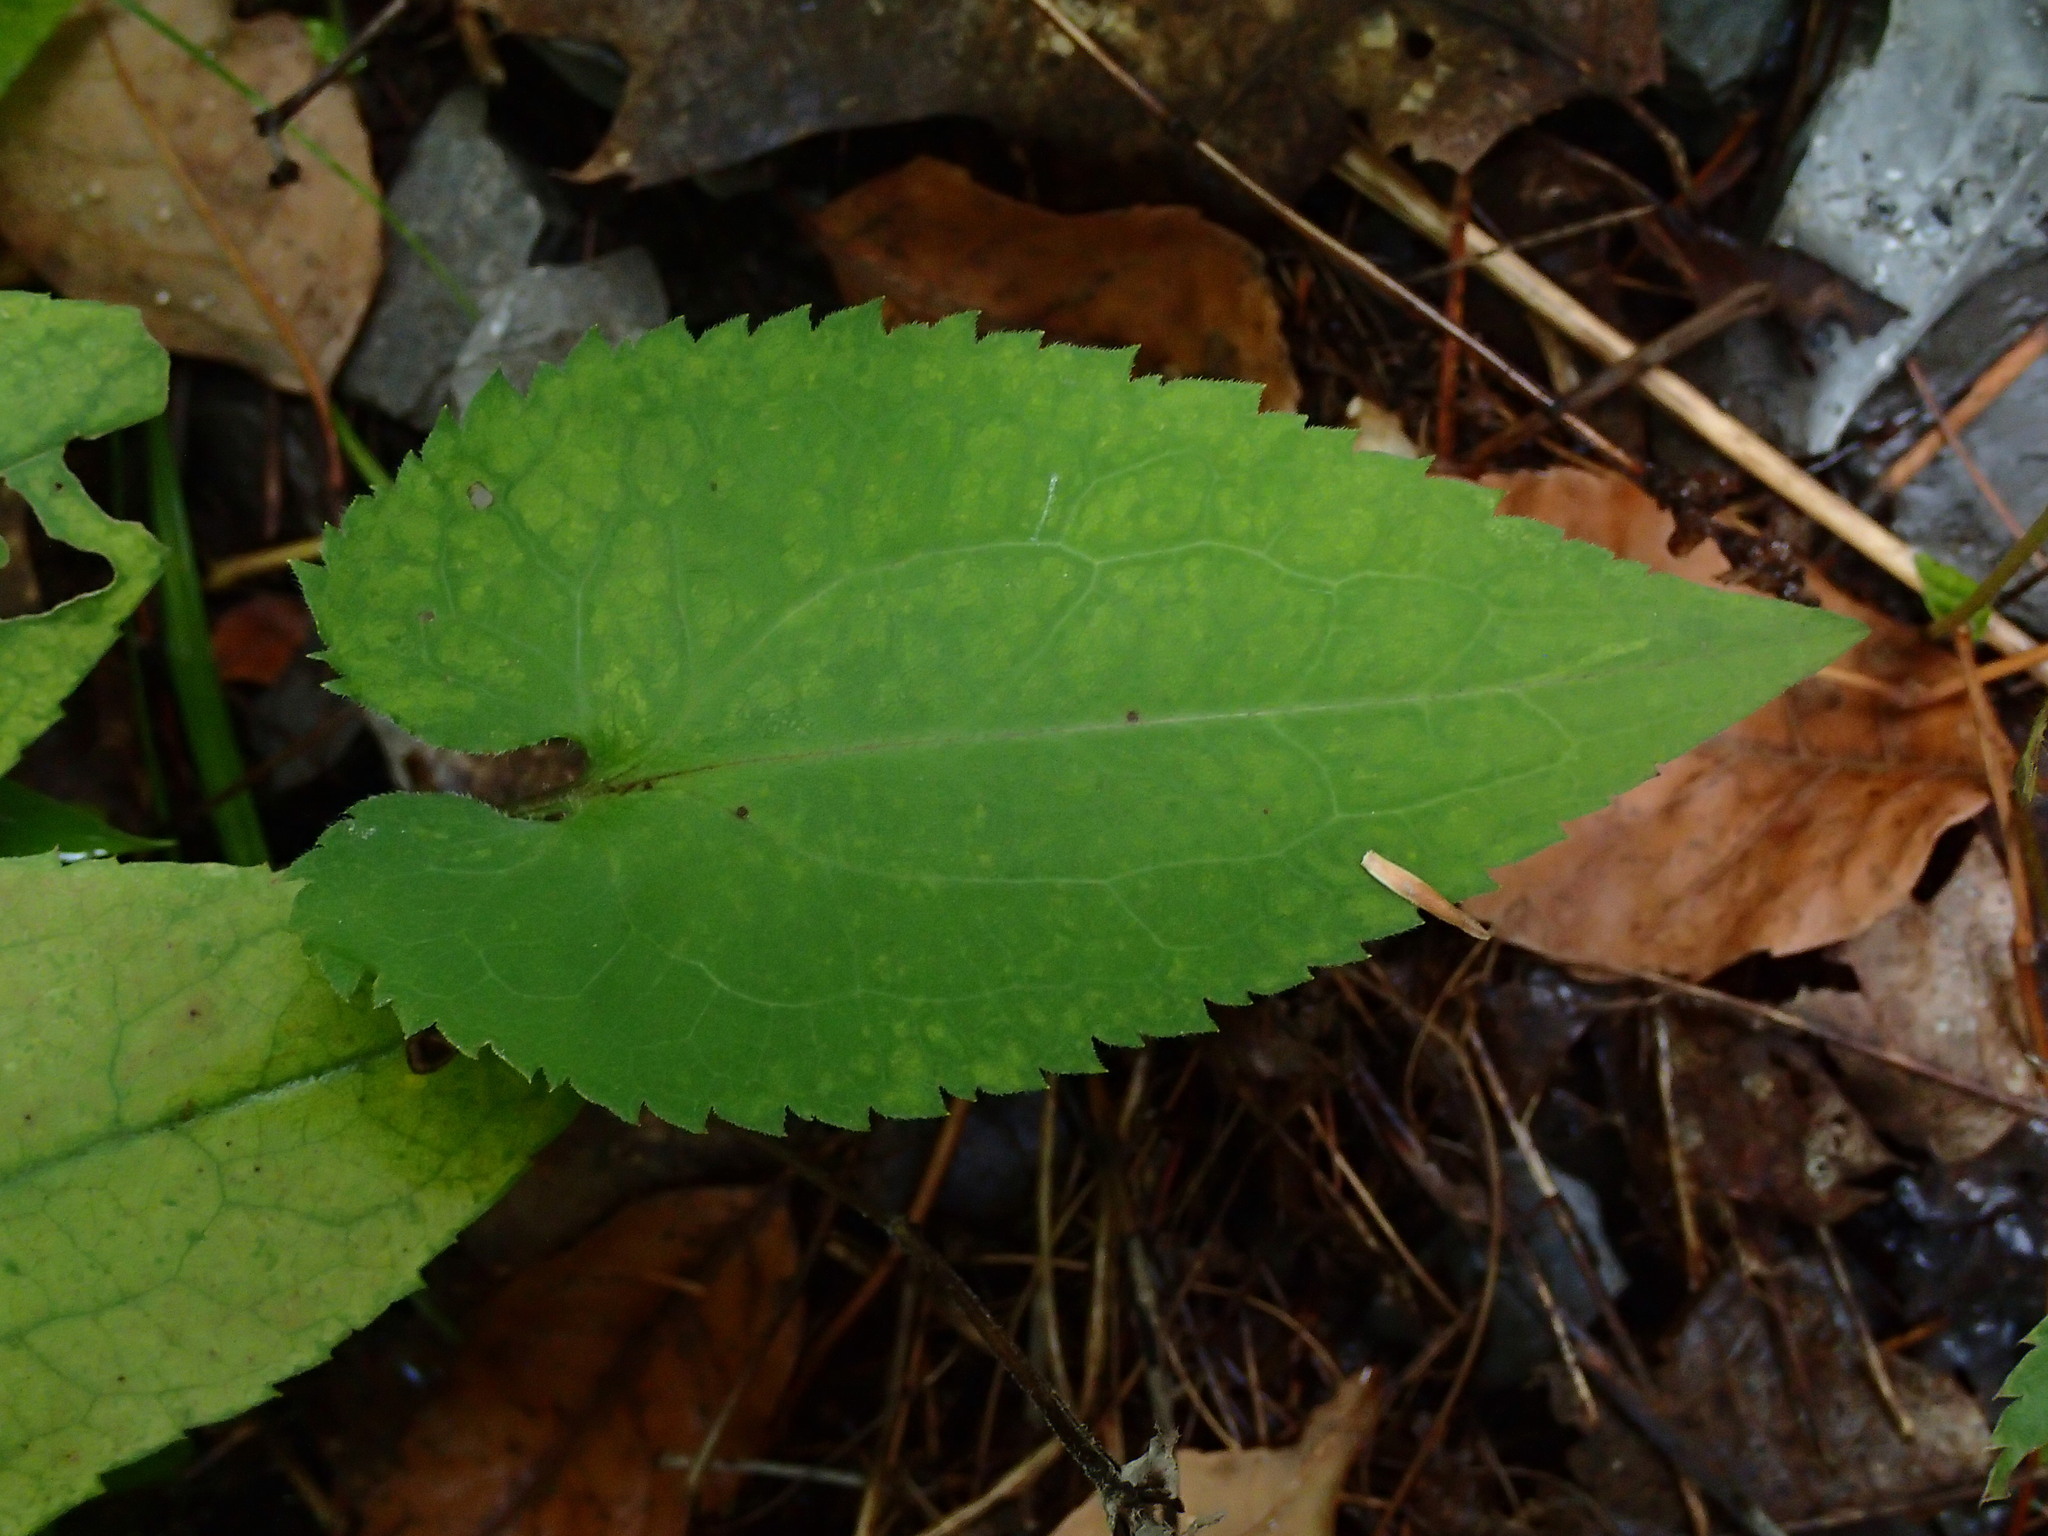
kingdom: Plantae
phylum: Tracheophyta
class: Magnoliopsida
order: Asterales
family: Asteraceae
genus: Symphyotrichum
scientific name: Symphyotrichum cordifolium
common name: Beeweed
